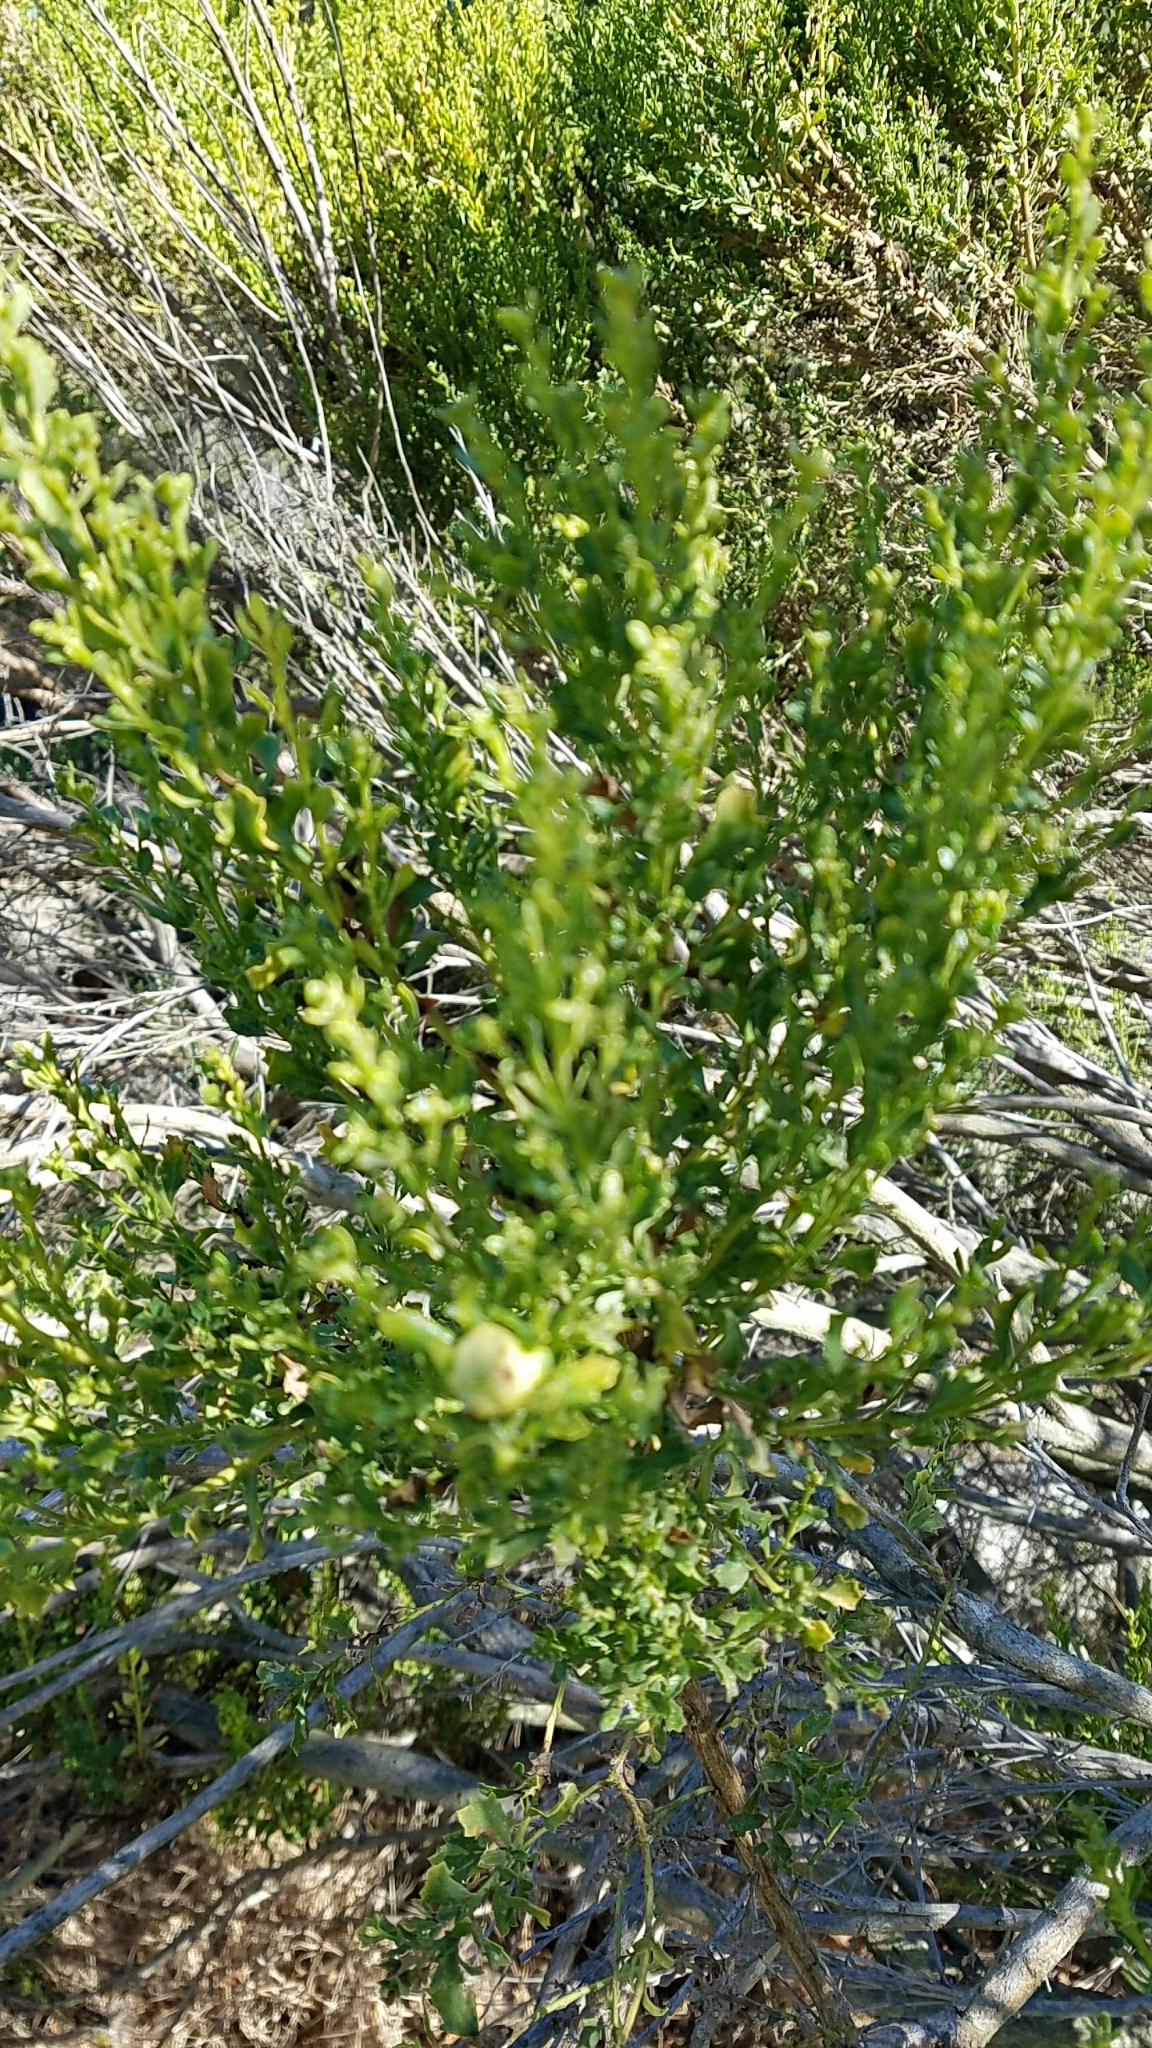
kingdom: Plantae
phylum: Tracheophyta
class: Magnoliopsida
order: Asterales
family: Asteraceae
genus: Baccharis
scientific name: Baccharis pilularis
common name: Coyotebrush
